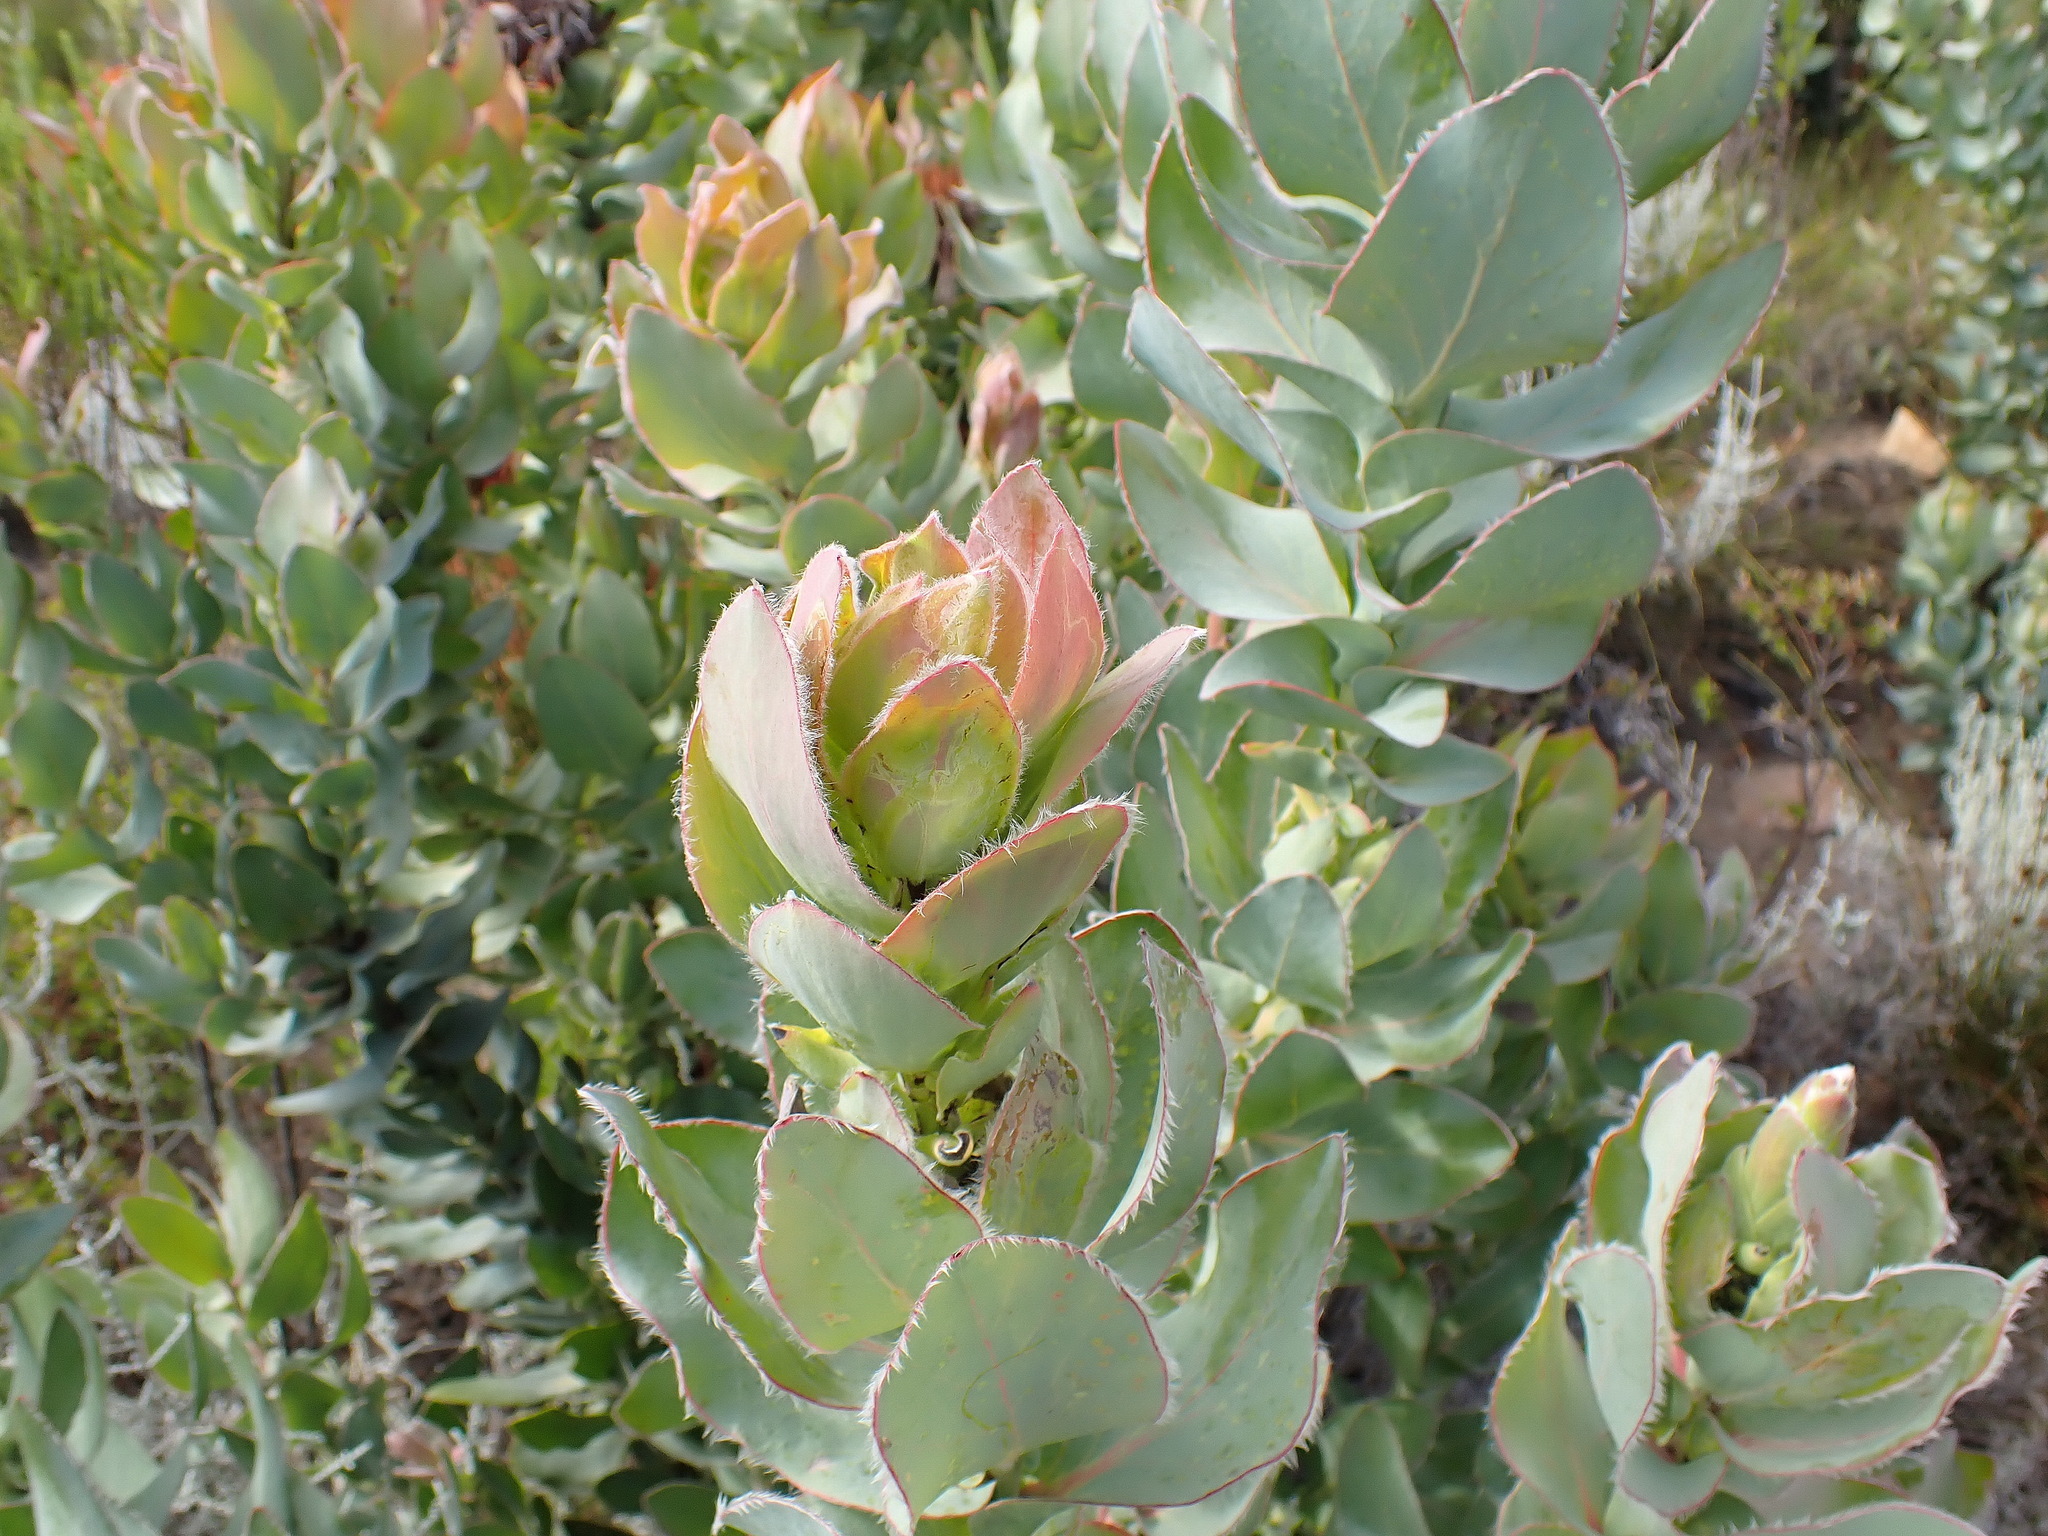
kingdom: Plantae
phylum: Tracheophyta
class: Magnoliopsida
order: Proteales
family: Proteaceae
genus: Protea
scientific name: Protea eximia
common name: Broad-leaved sugarbush
